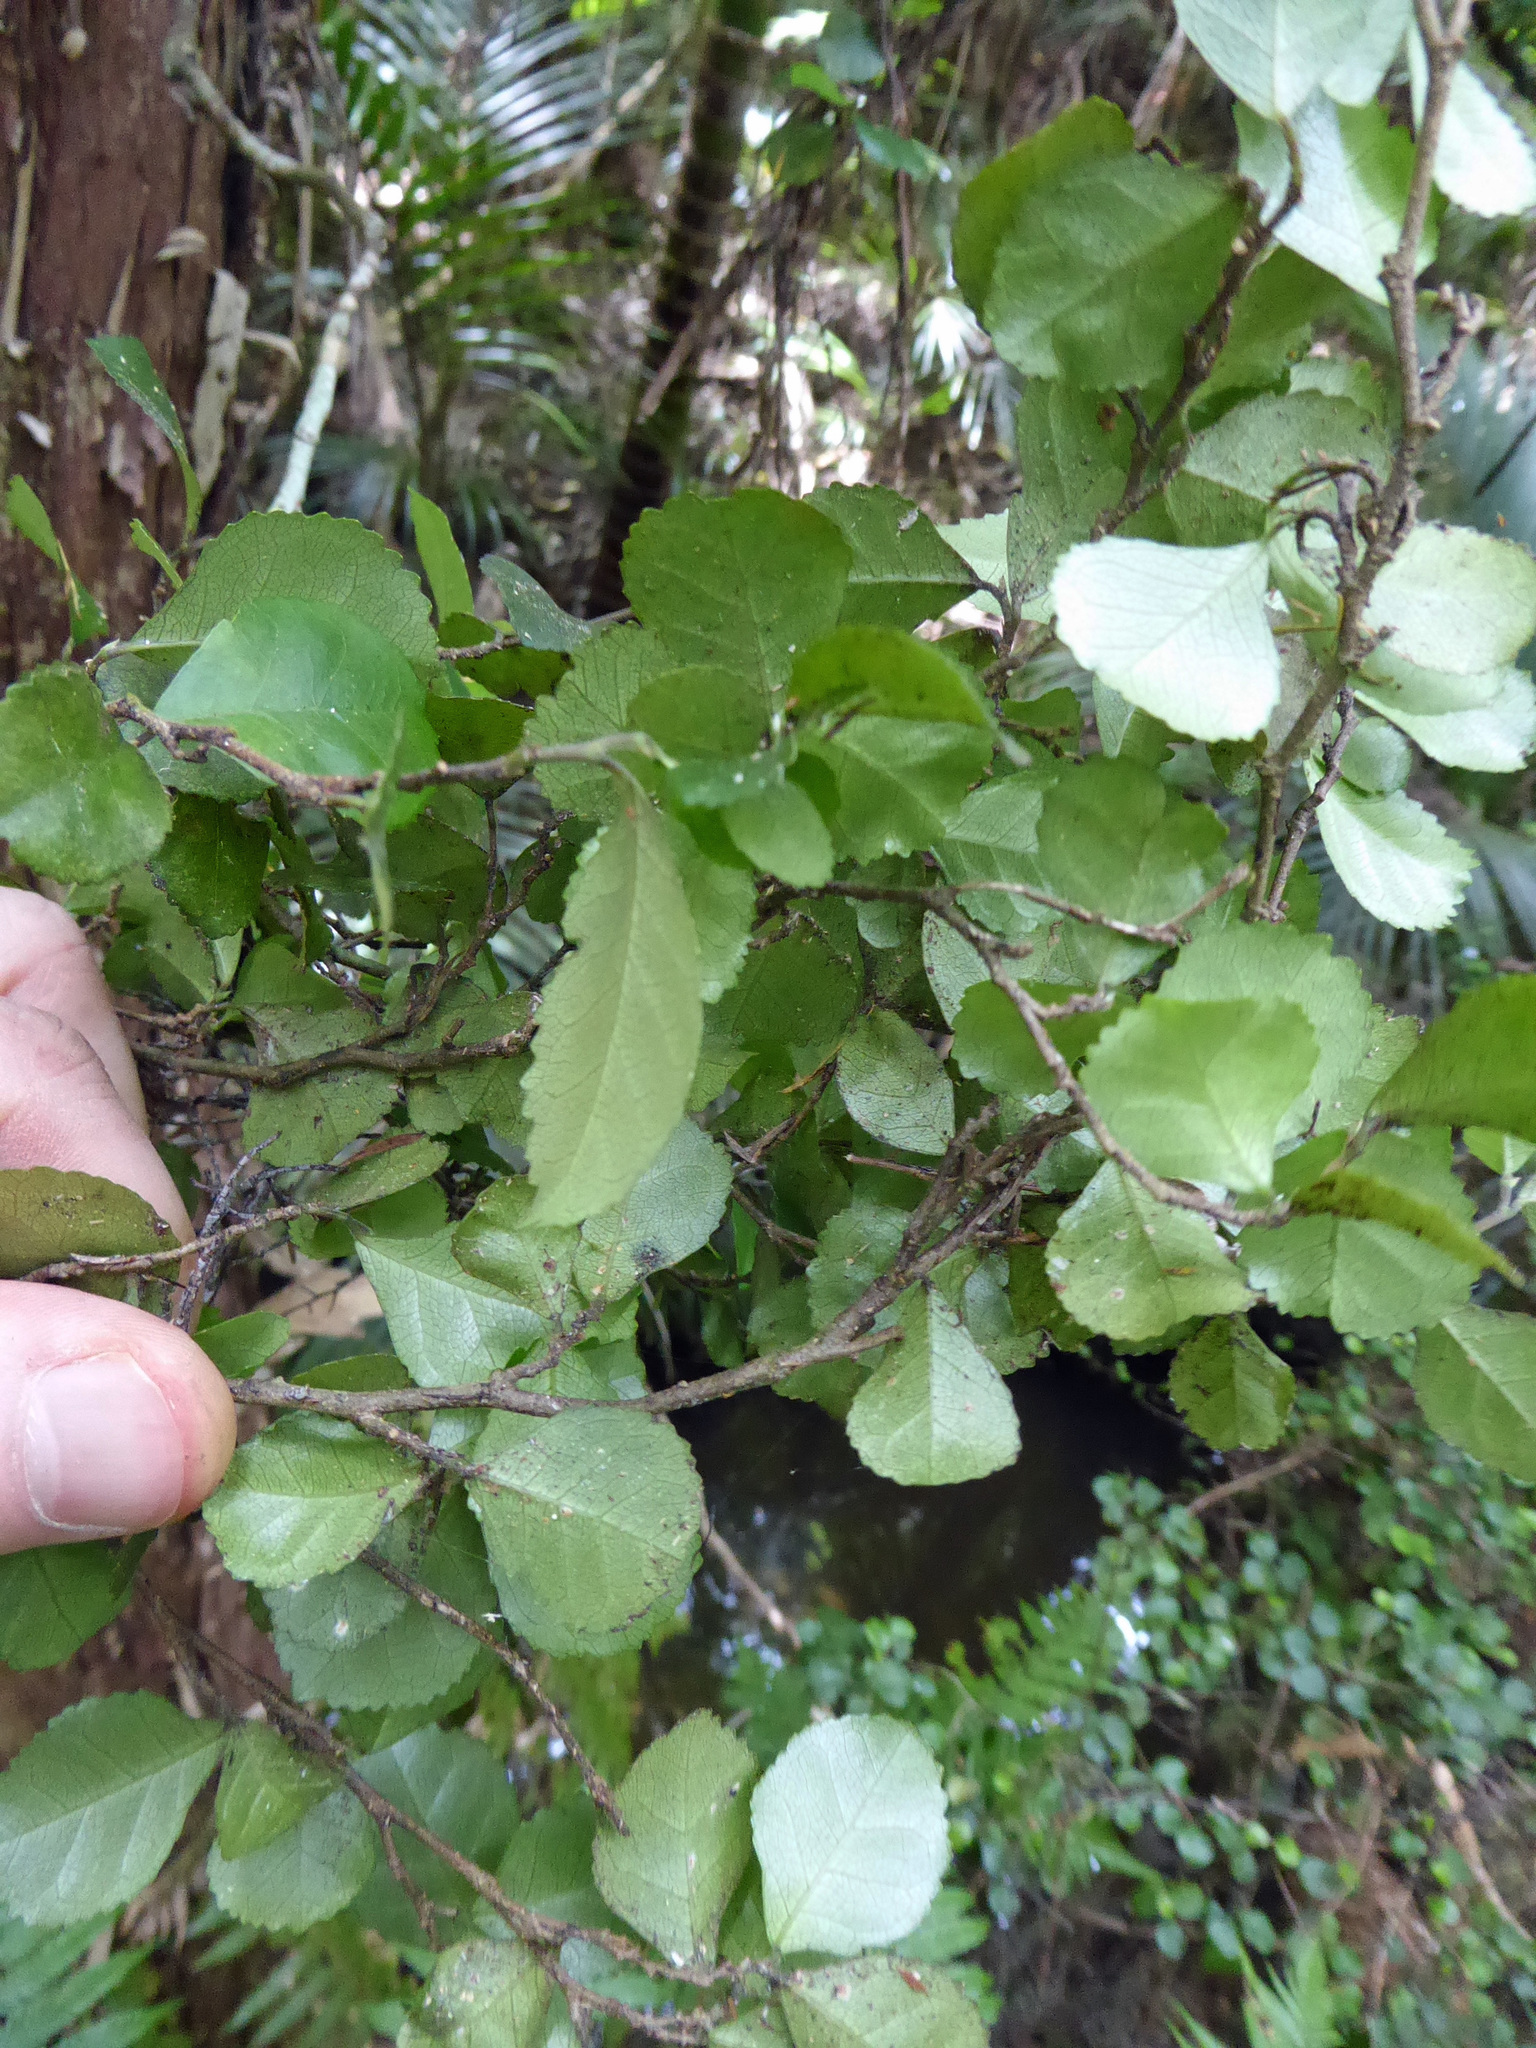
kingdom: Plantae
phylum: Tracheophyta
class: Magnoliopsida
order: Rosales
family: Moraceae
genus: Paratrophis
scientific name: Paratrophis microphylla
